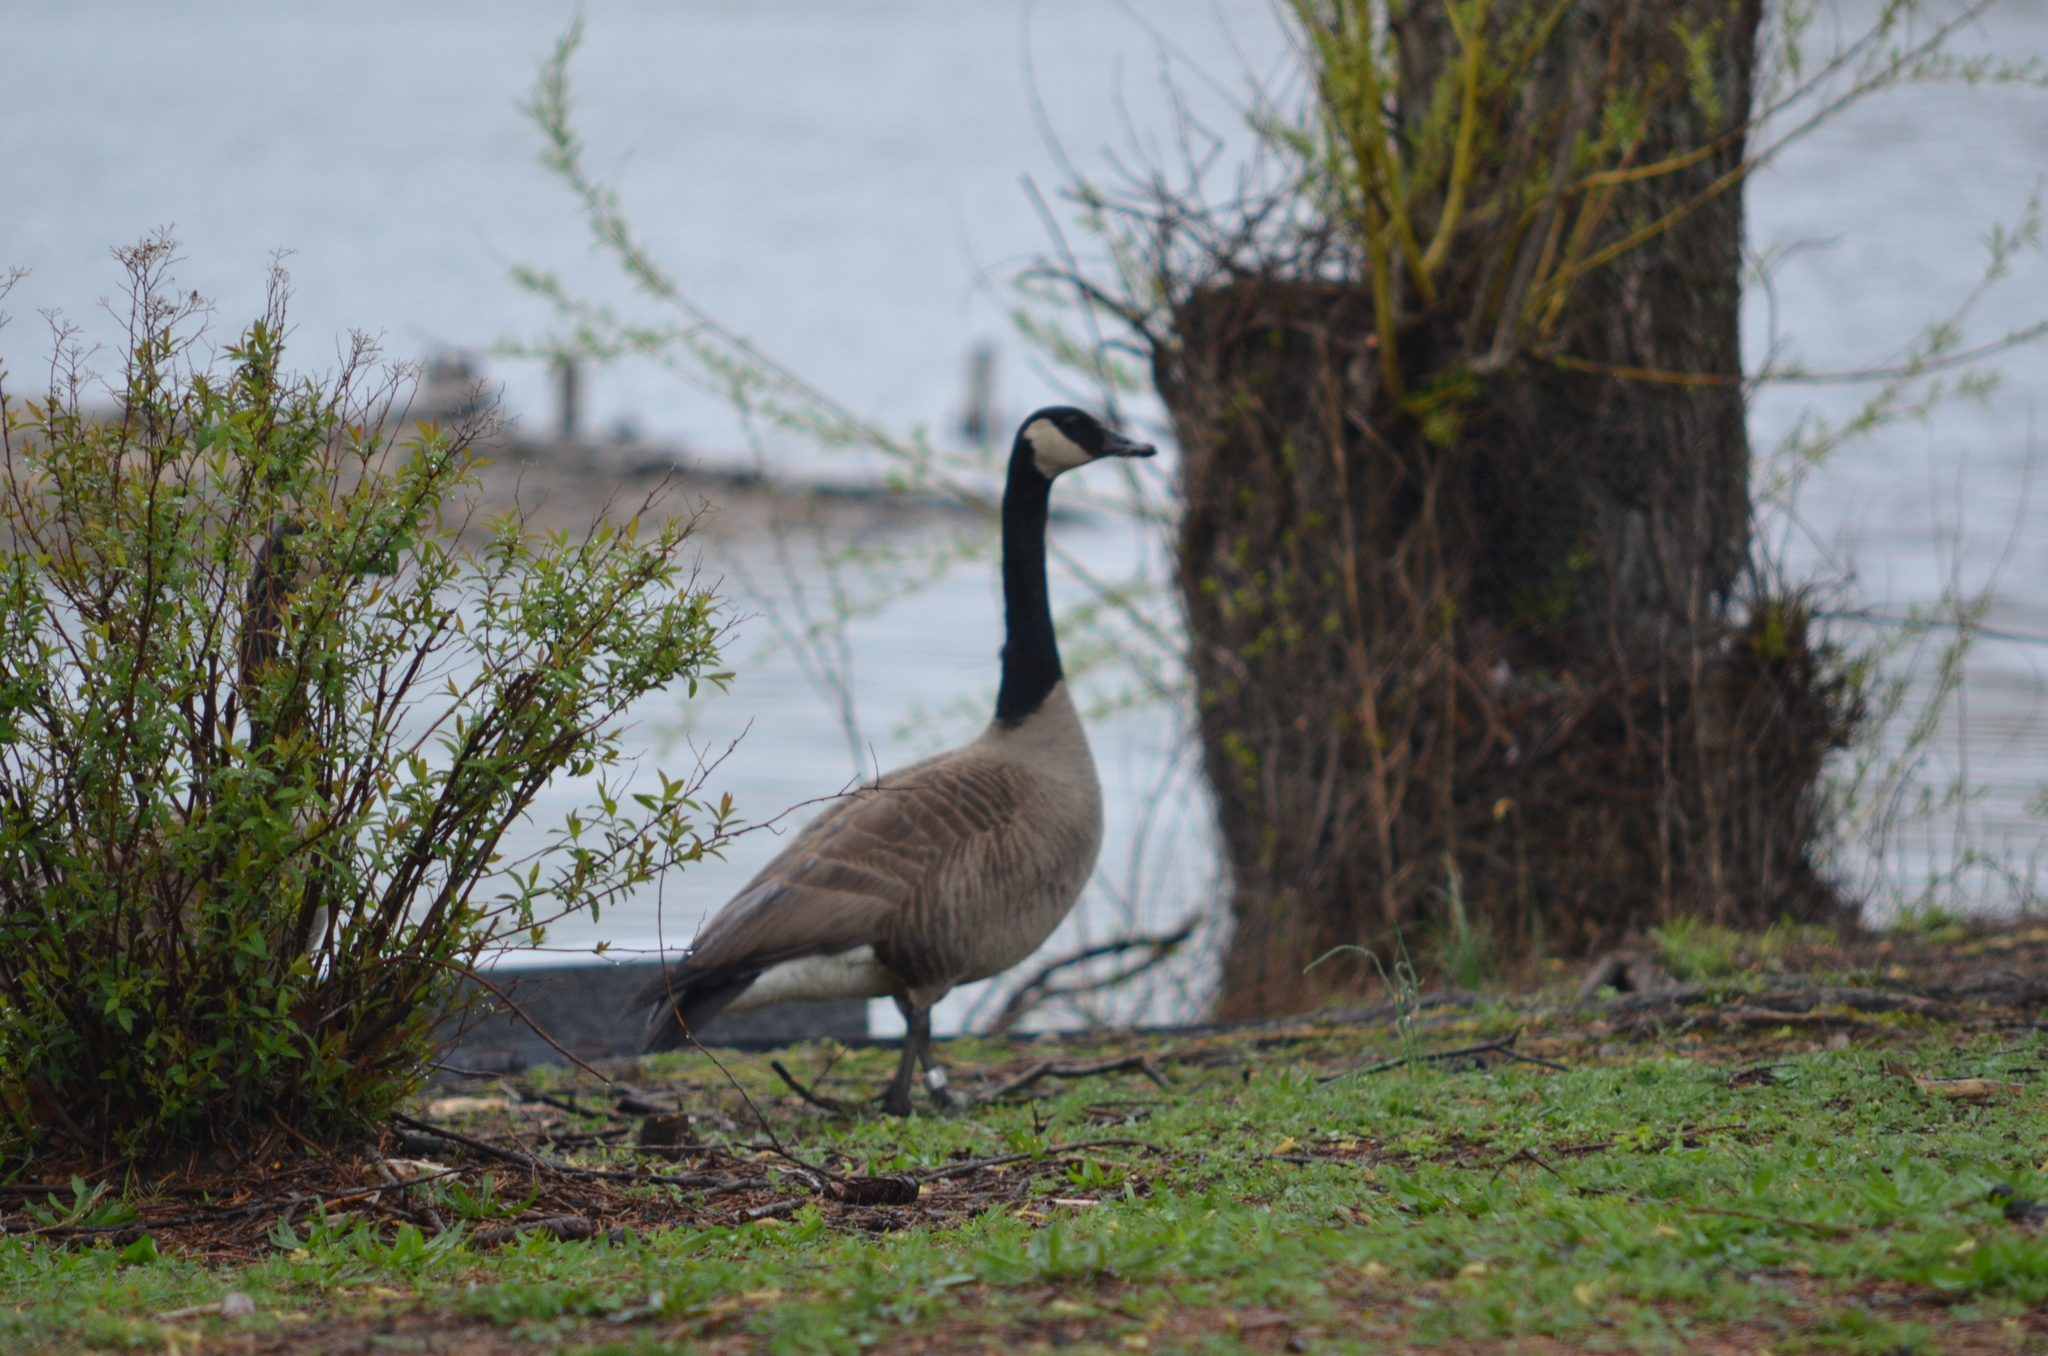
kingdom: Animalia
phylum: Chordata
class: Aves
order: Anseriformes
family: Anatidae
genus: Branta
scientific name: Branta canadensis
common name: Canada goose
